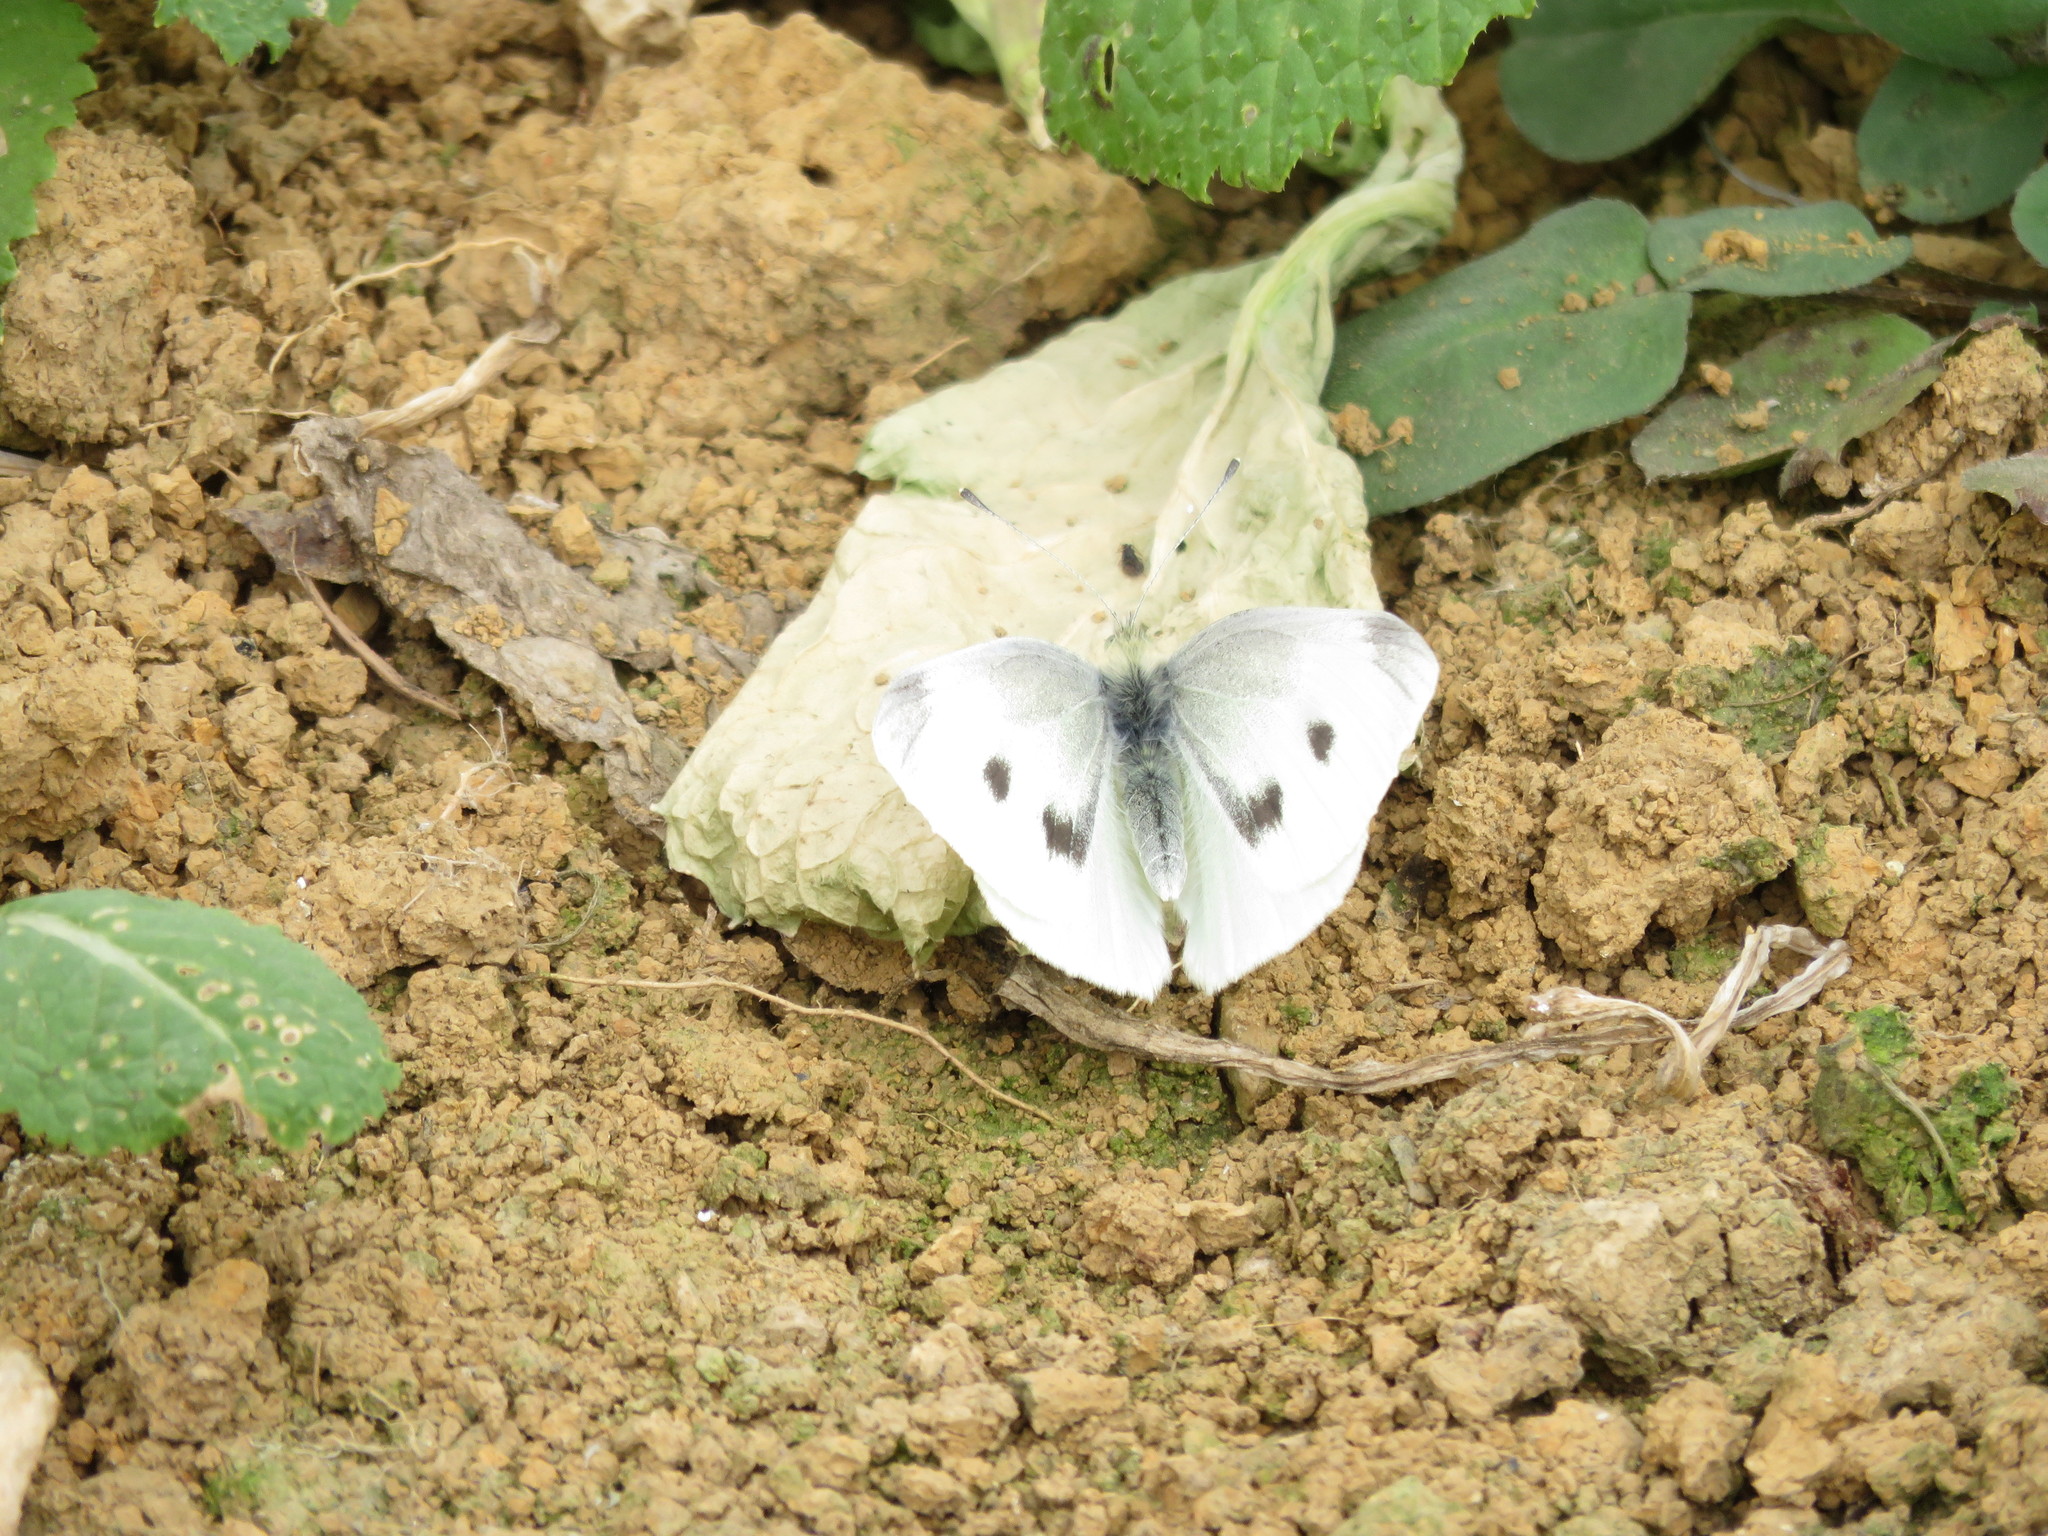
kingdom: Animalia
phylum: Arthropoda
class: Insecta
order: Lepidoptera
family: Pieridae
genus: Pieris
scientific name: Pieris rapae
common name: Small white
